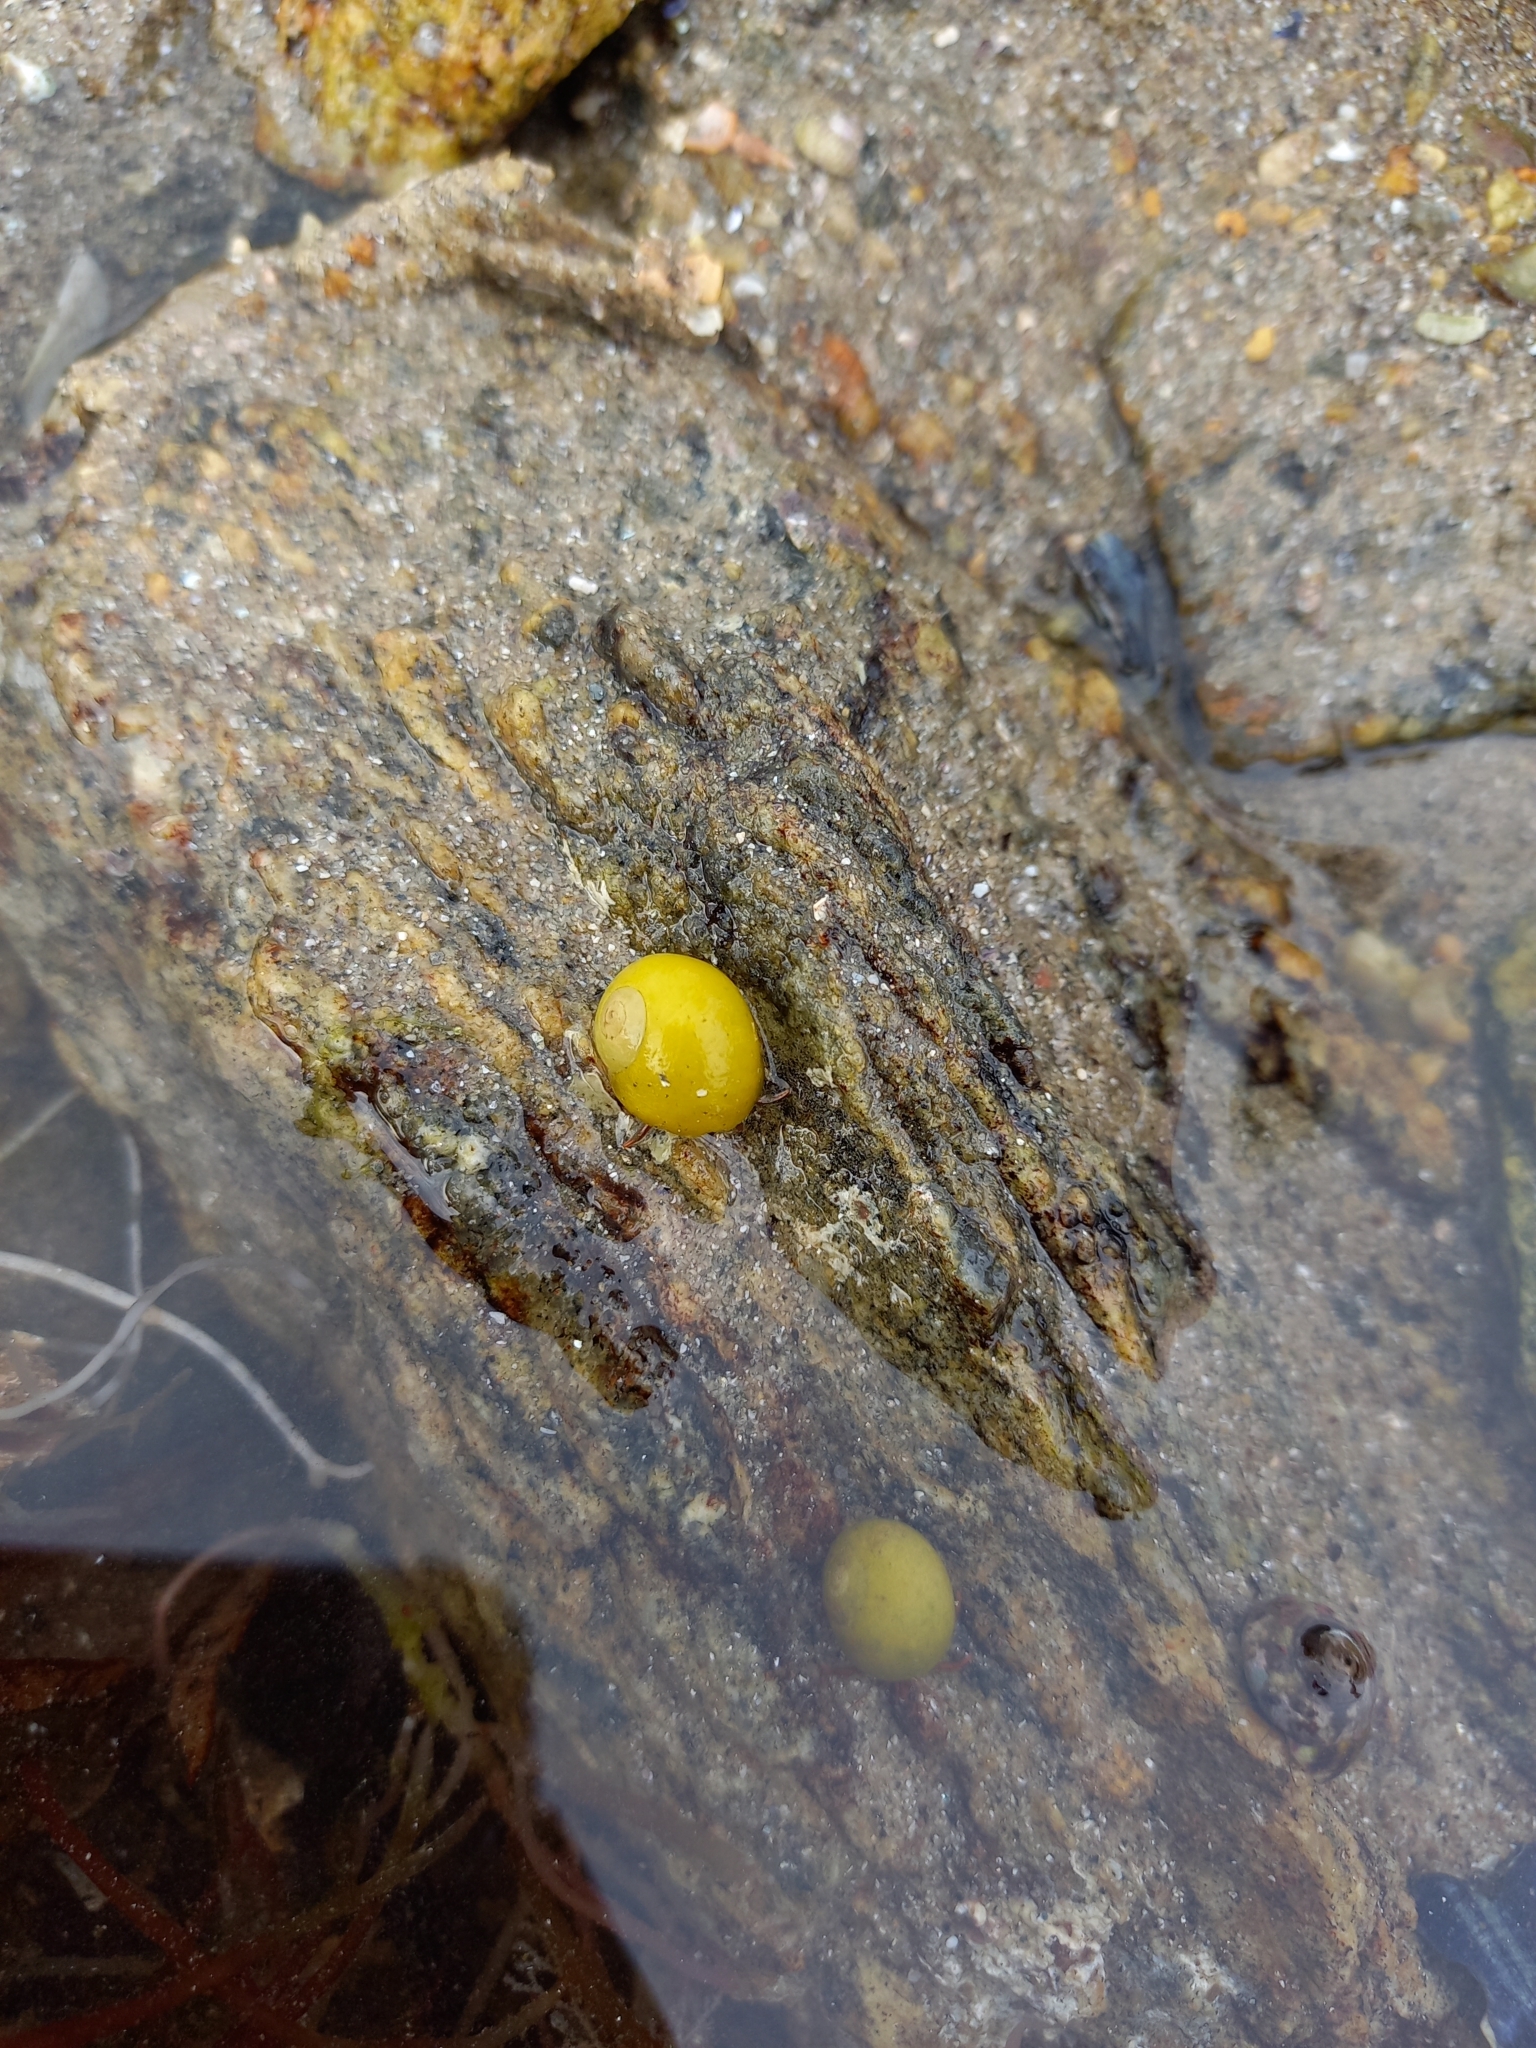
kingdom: Animalia
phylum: Mollusca
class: Gastropoda
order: Littorinimorpha
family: Littorinidae
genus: Littorina
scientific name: Littorina obtusata
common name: Flat periwinkle
